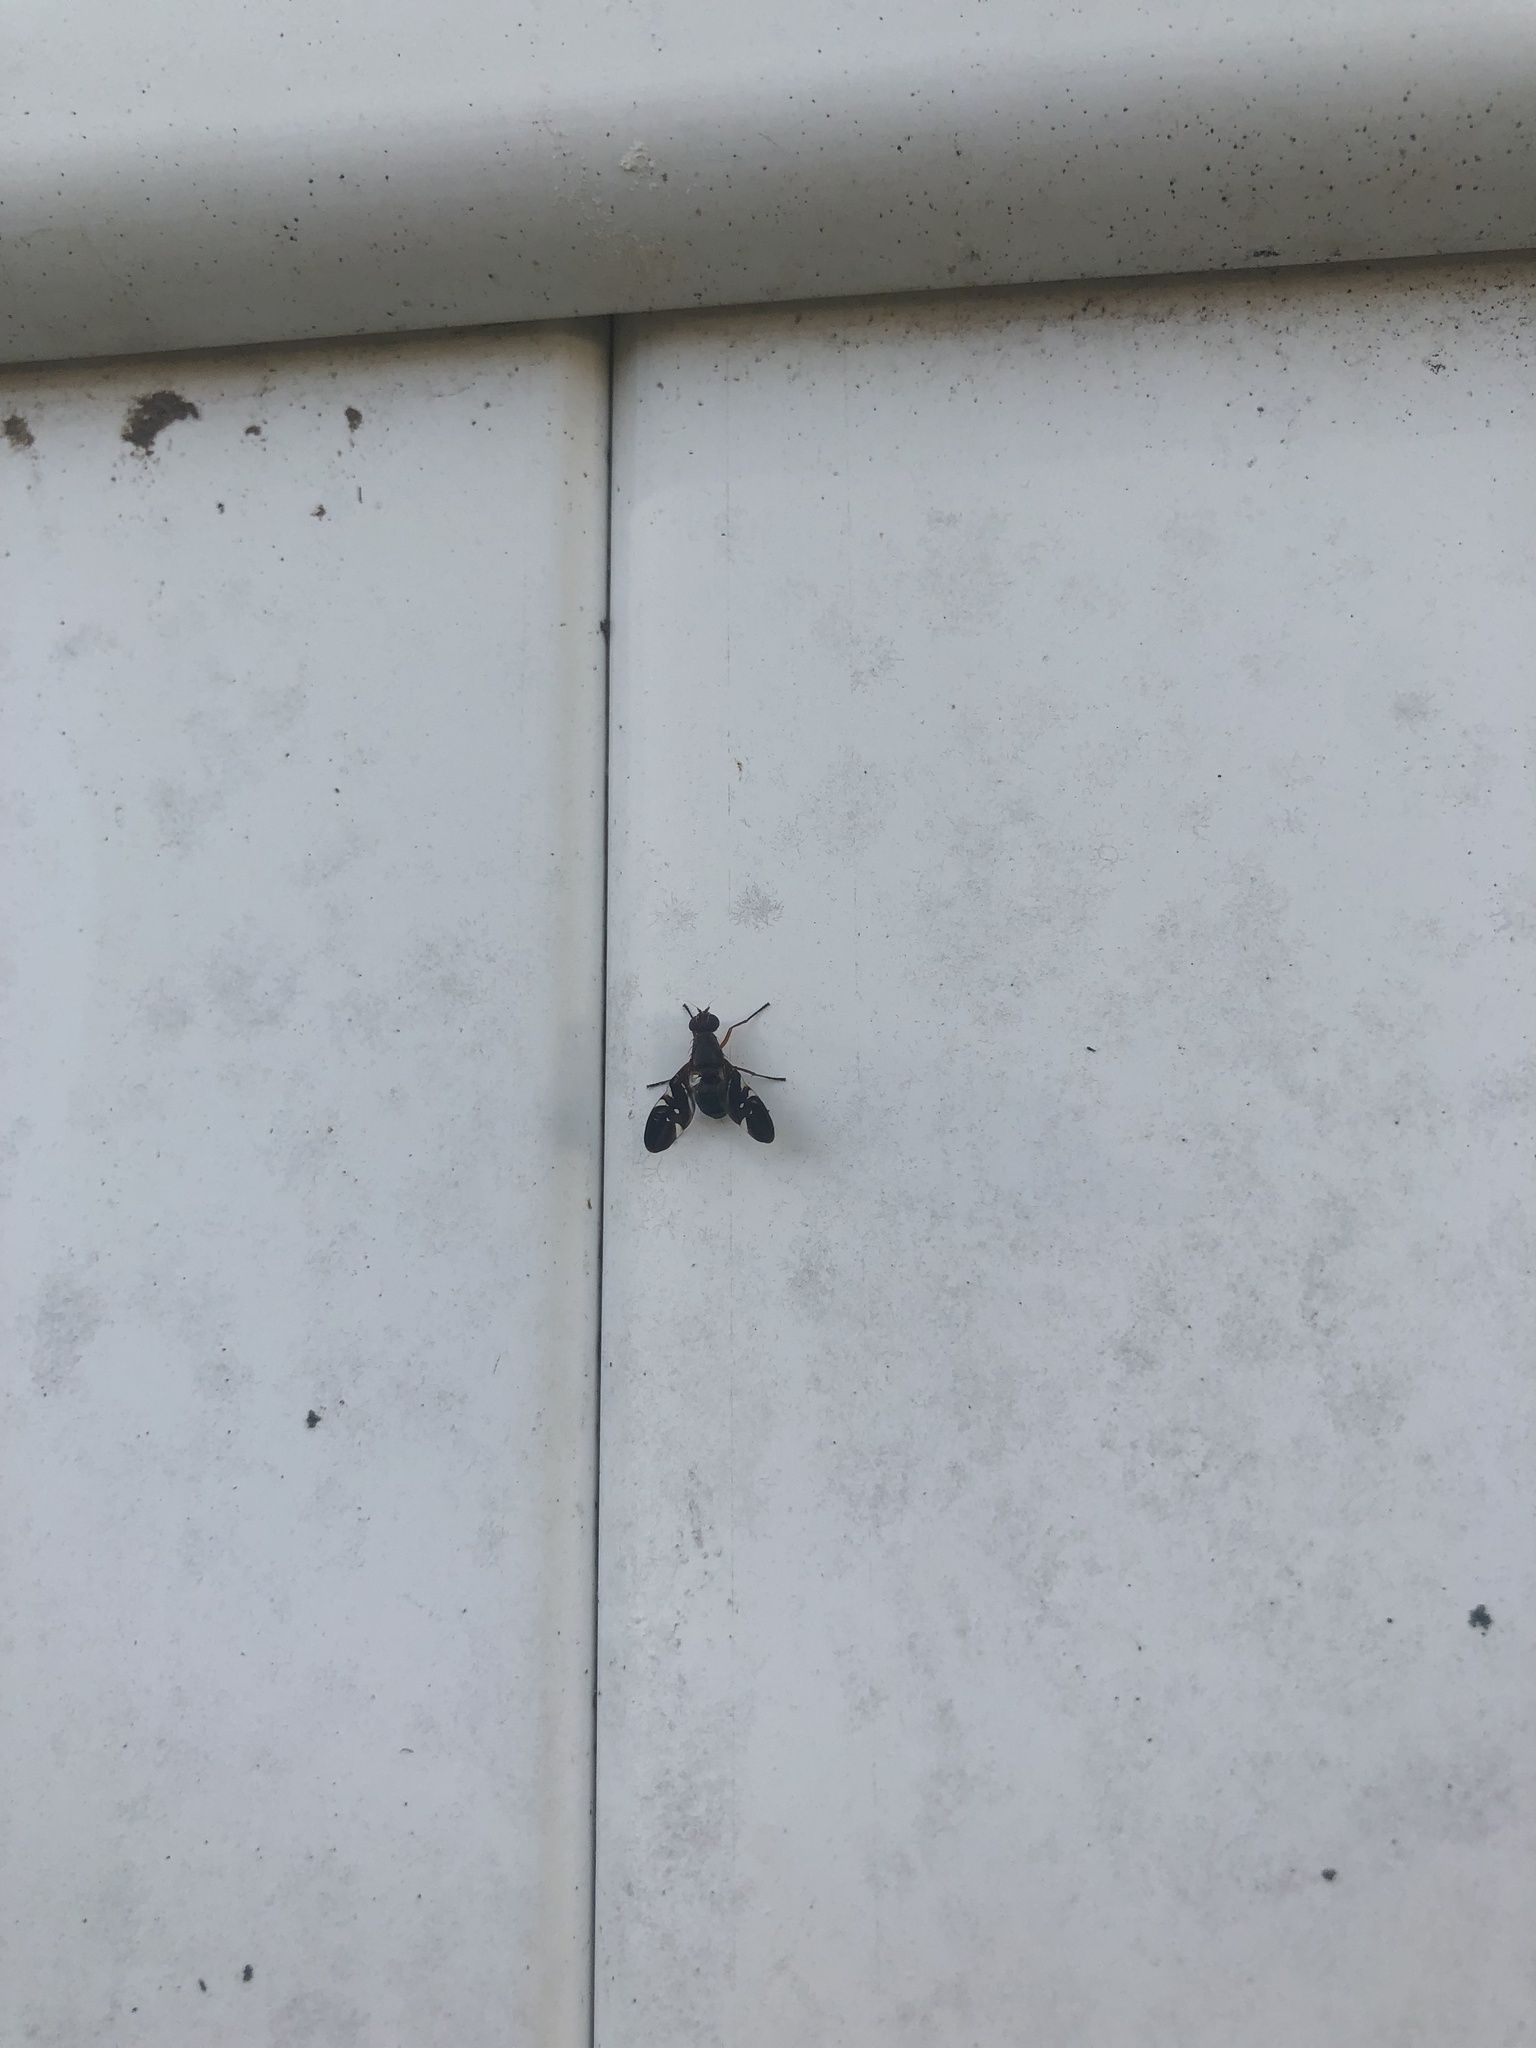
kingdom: Animalia
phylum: Arthropoda
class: Insecta
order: Diptera
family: Ulidiidae
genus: Delphinia
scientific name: Delphinia picta
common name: Common picture-winged fly
